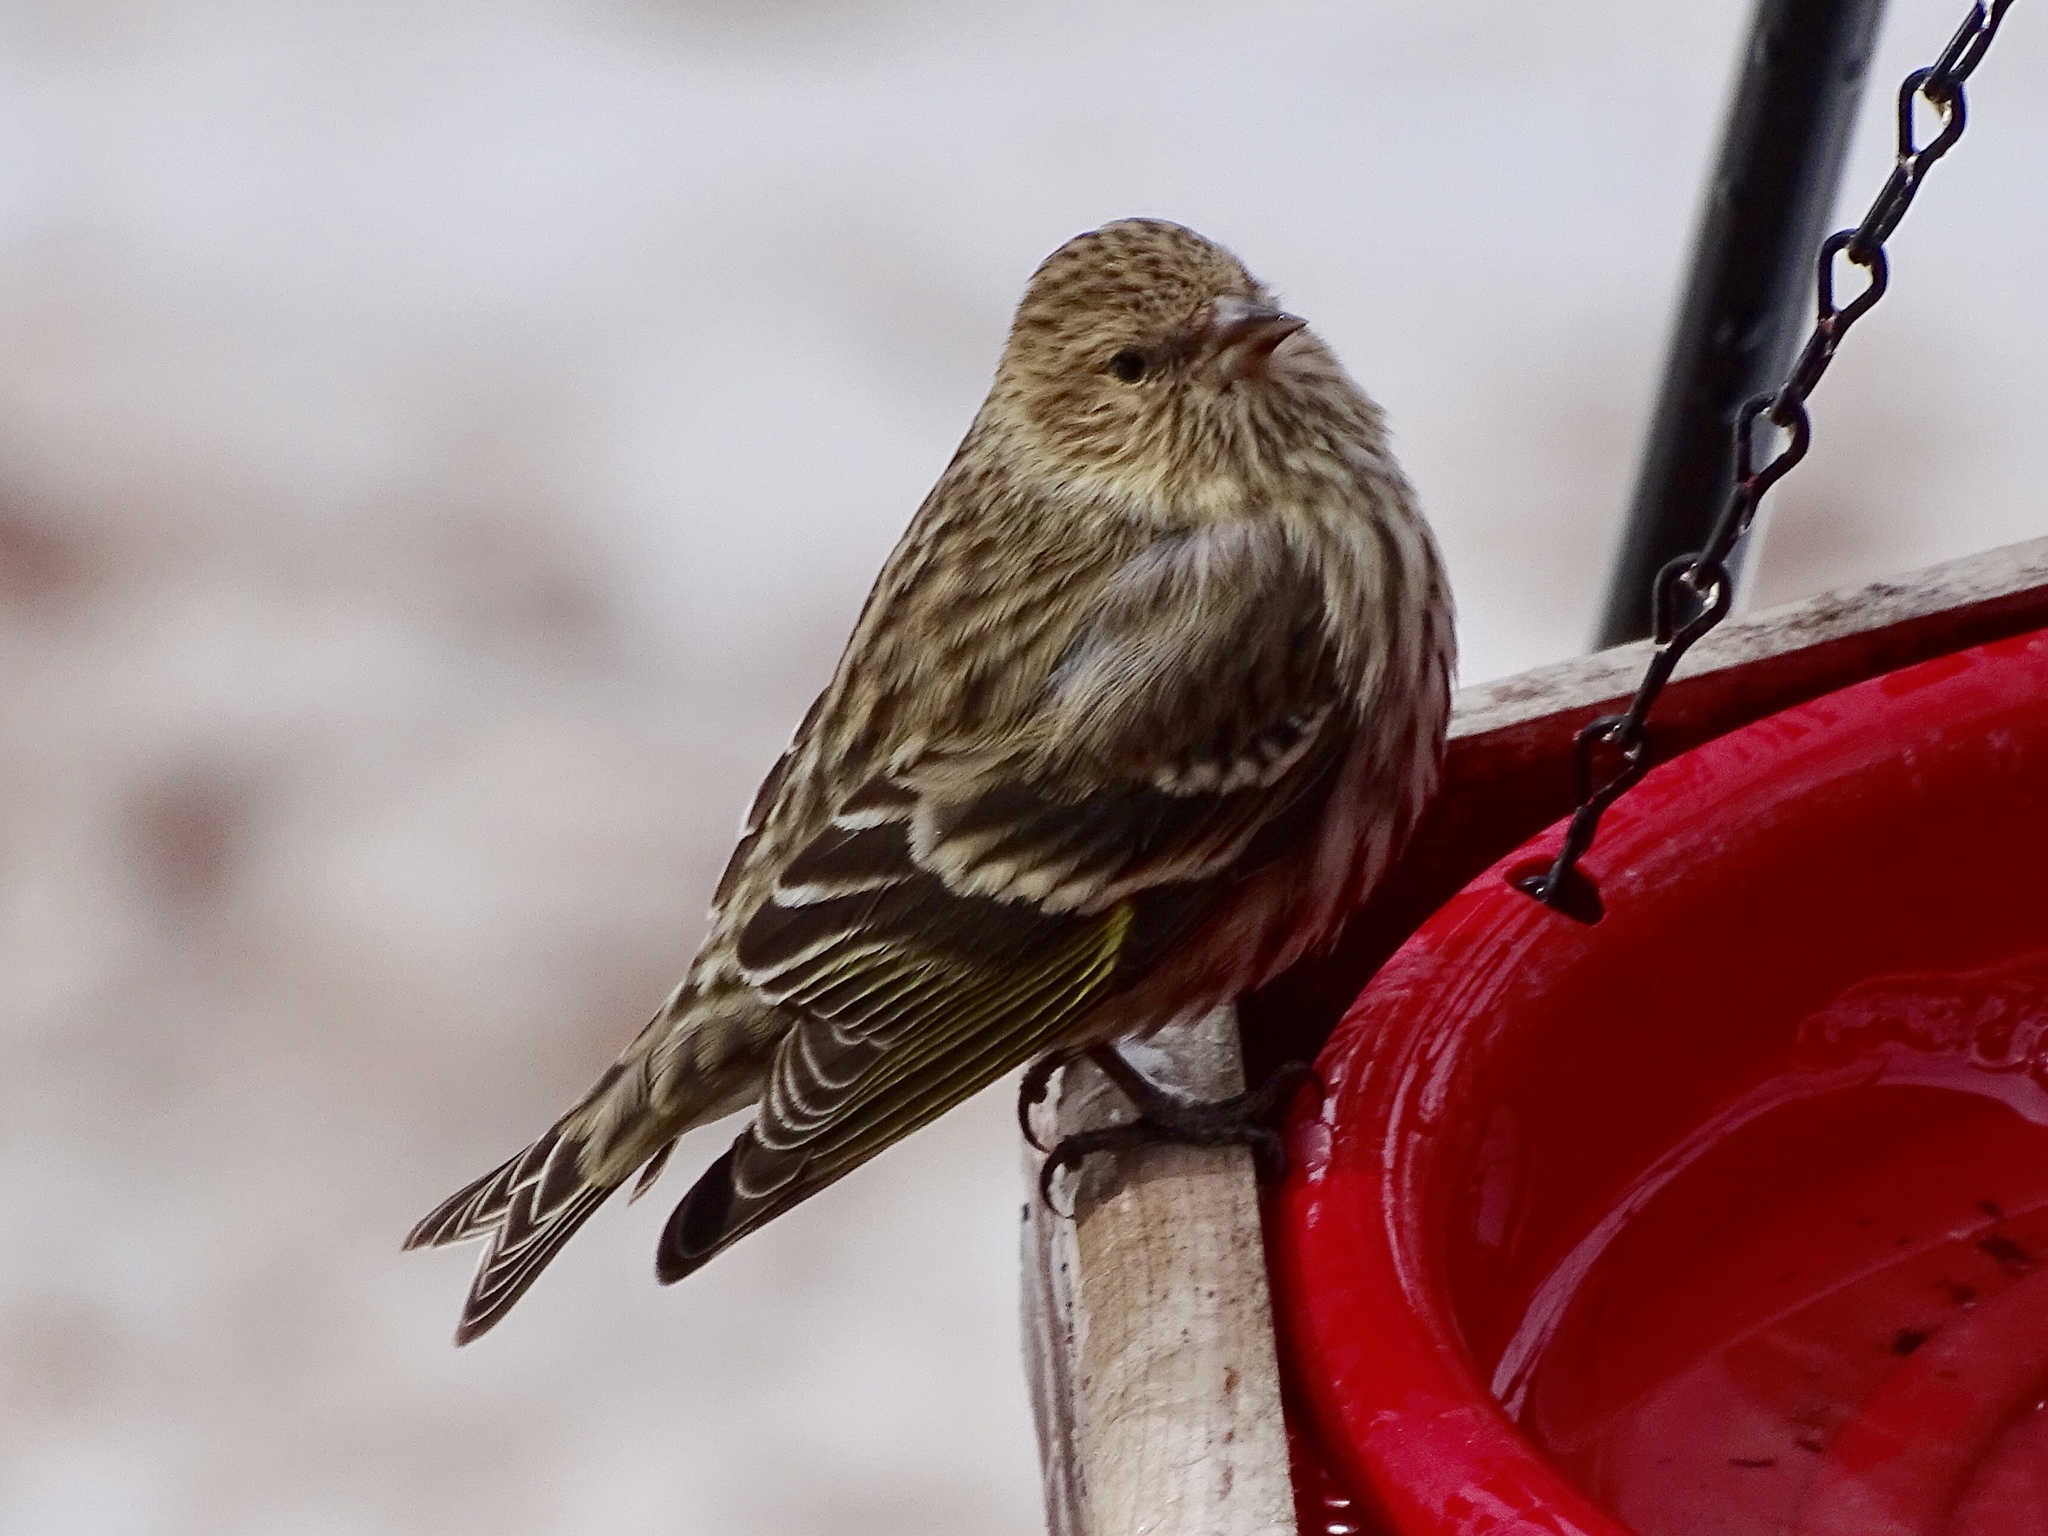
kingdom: Animalia
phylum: Chordata
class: Aves
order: Passeriformes
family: Fringillidae
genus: Spinus
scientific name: Spinus pinus
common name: Pine siskin
